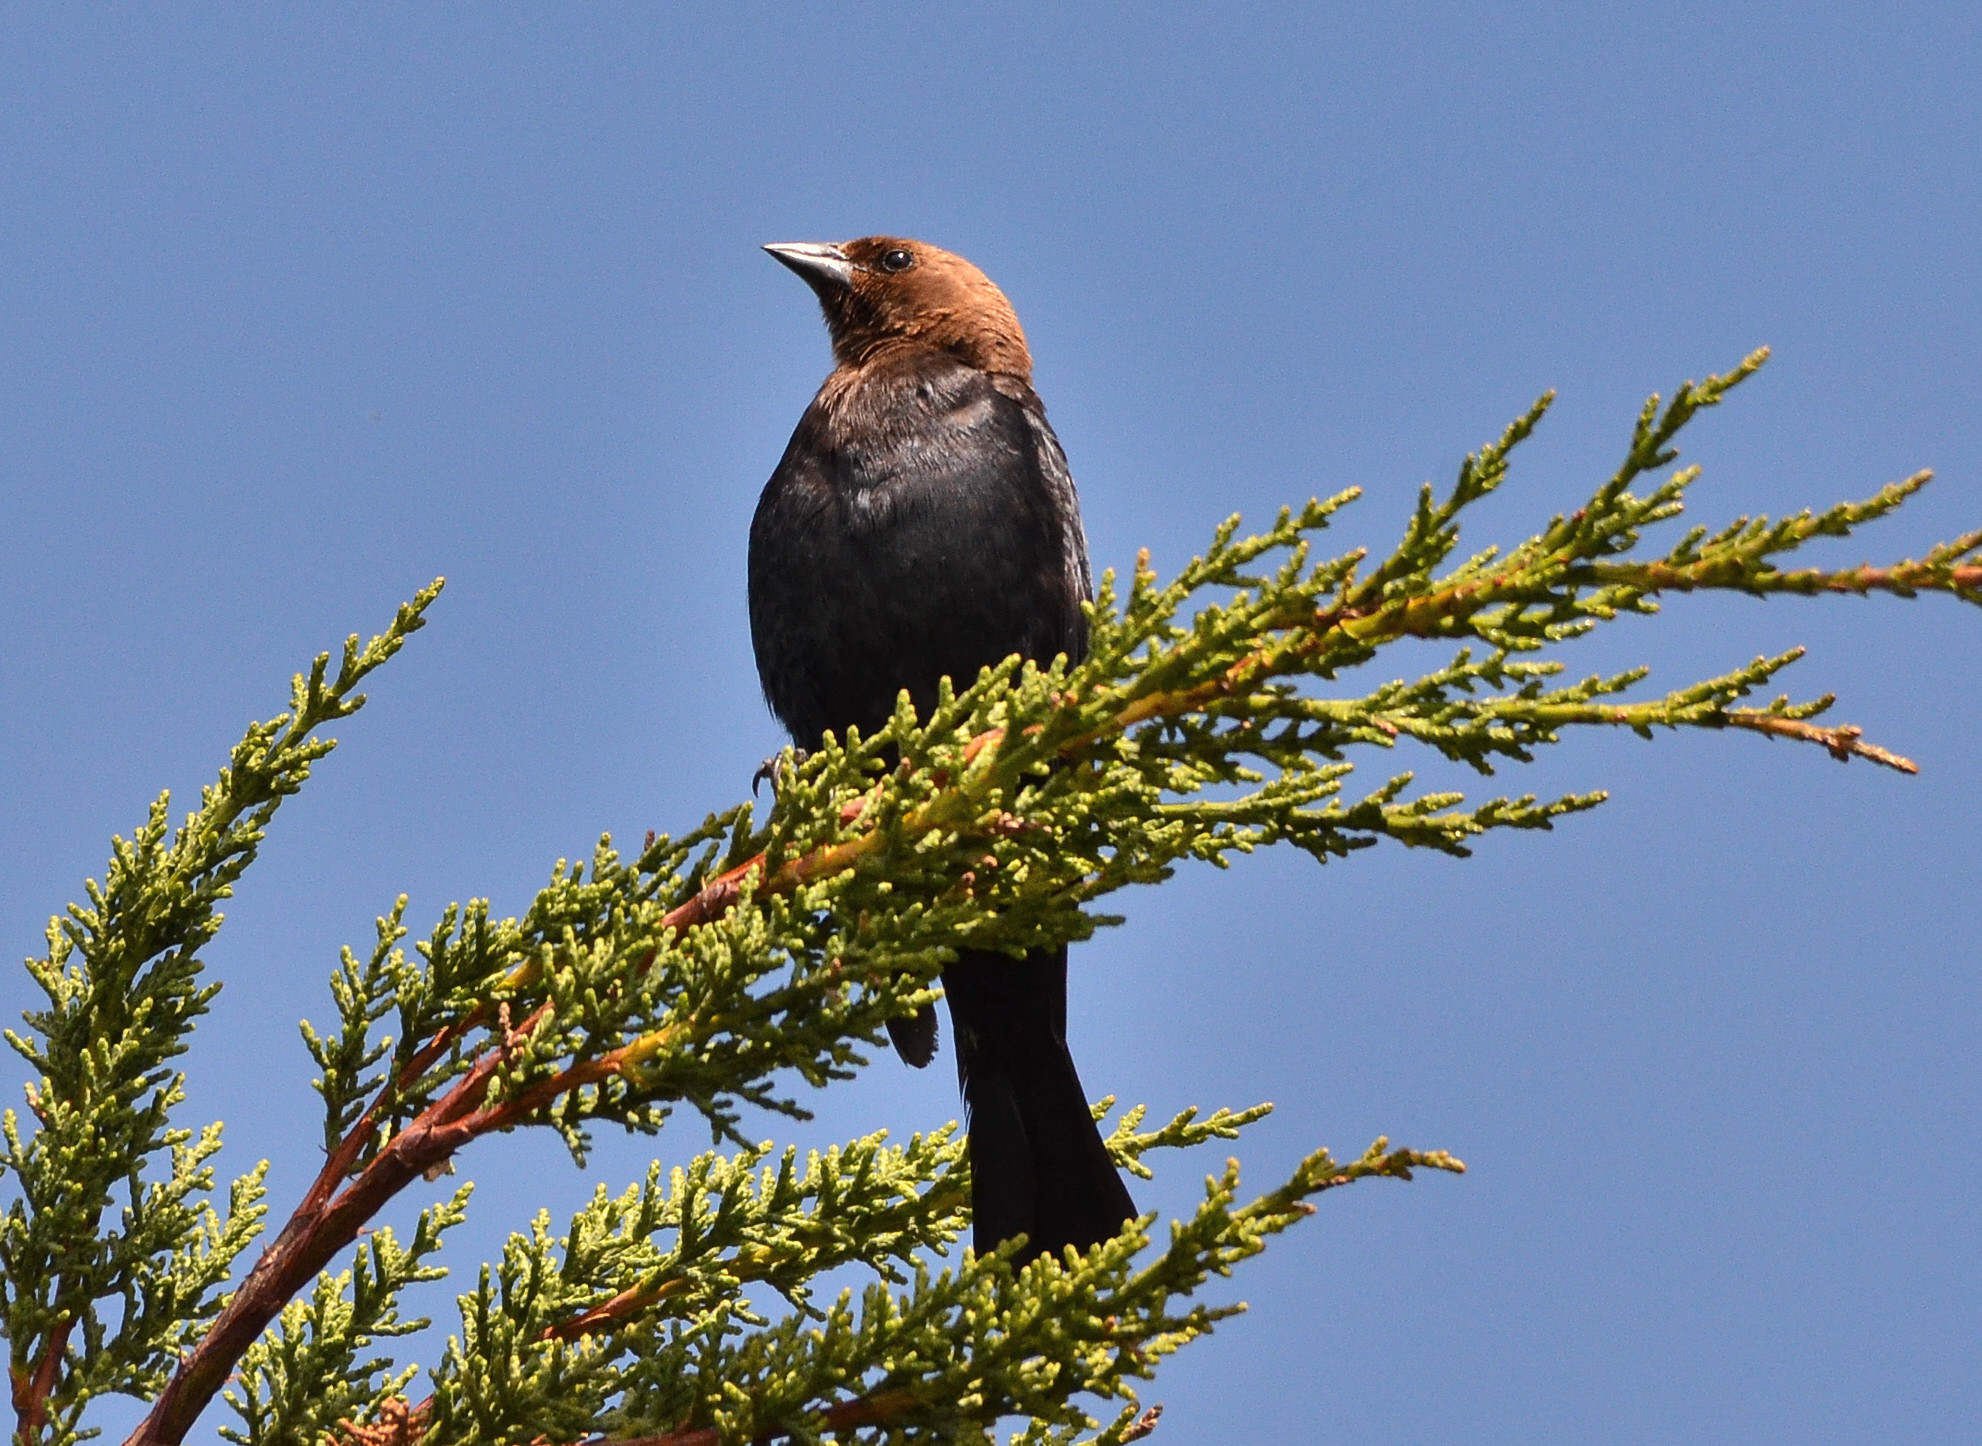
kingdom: Animalia
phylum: Chordata
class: Aves
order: Passeriformes
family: Icteridae
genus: Molothrus
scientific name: Molothrus ater
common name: Brown-headed cowbird
